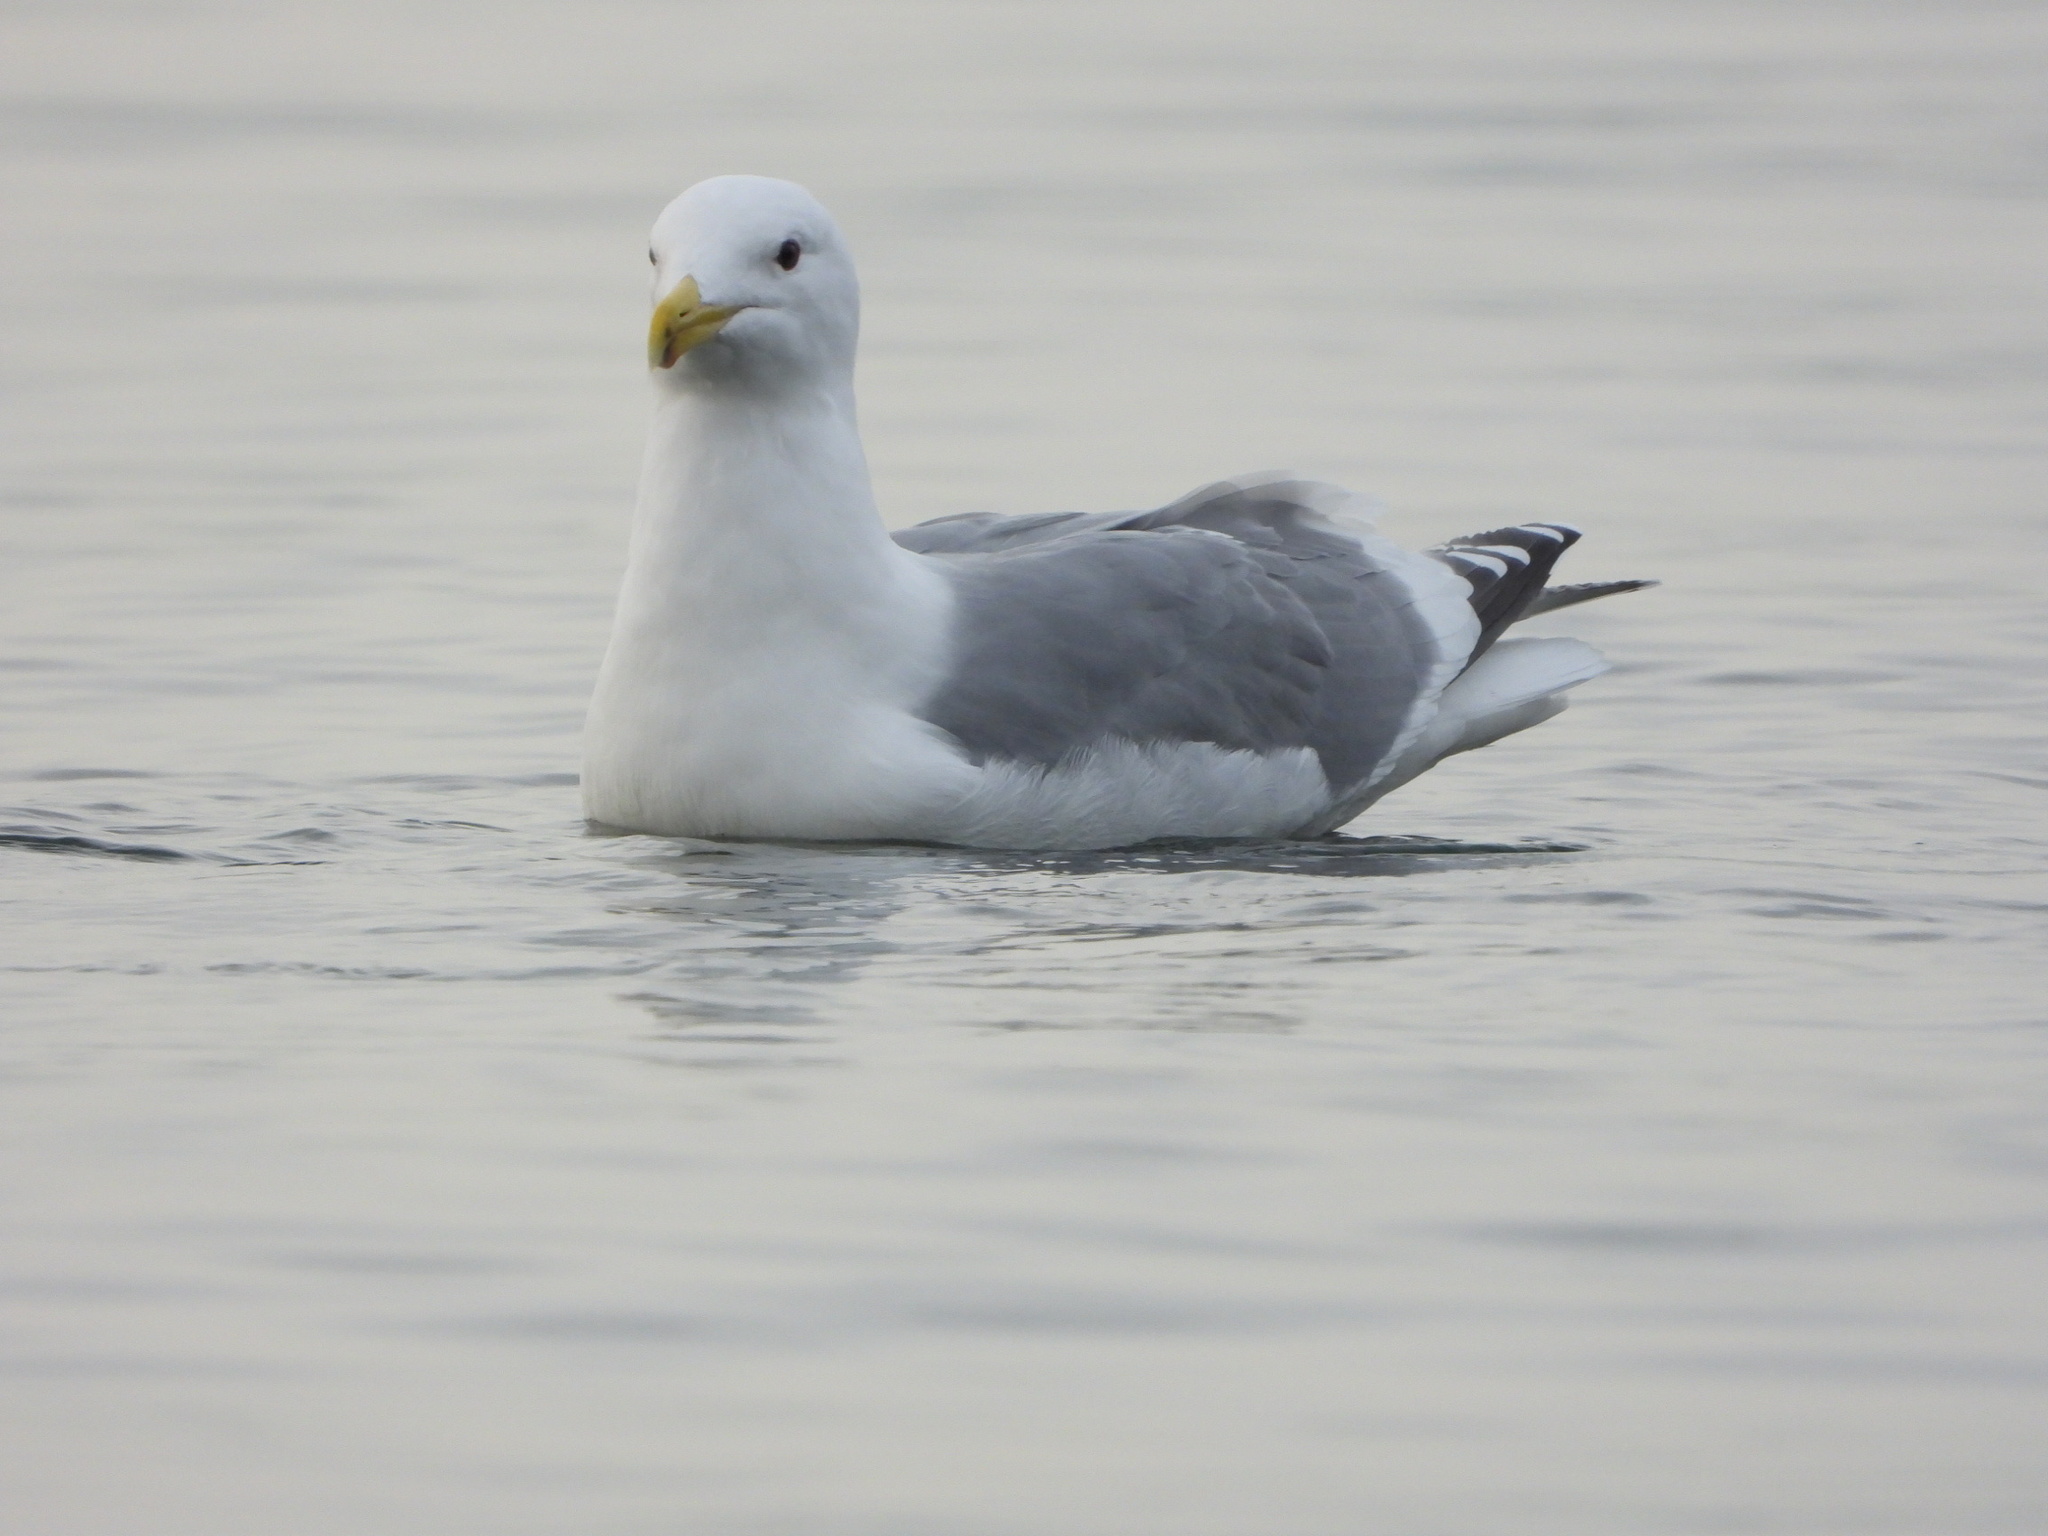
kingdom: Animalia
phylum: Chordata
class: Aves
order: Charadriiformes
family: Laridae
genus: Larus
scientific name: Larus
